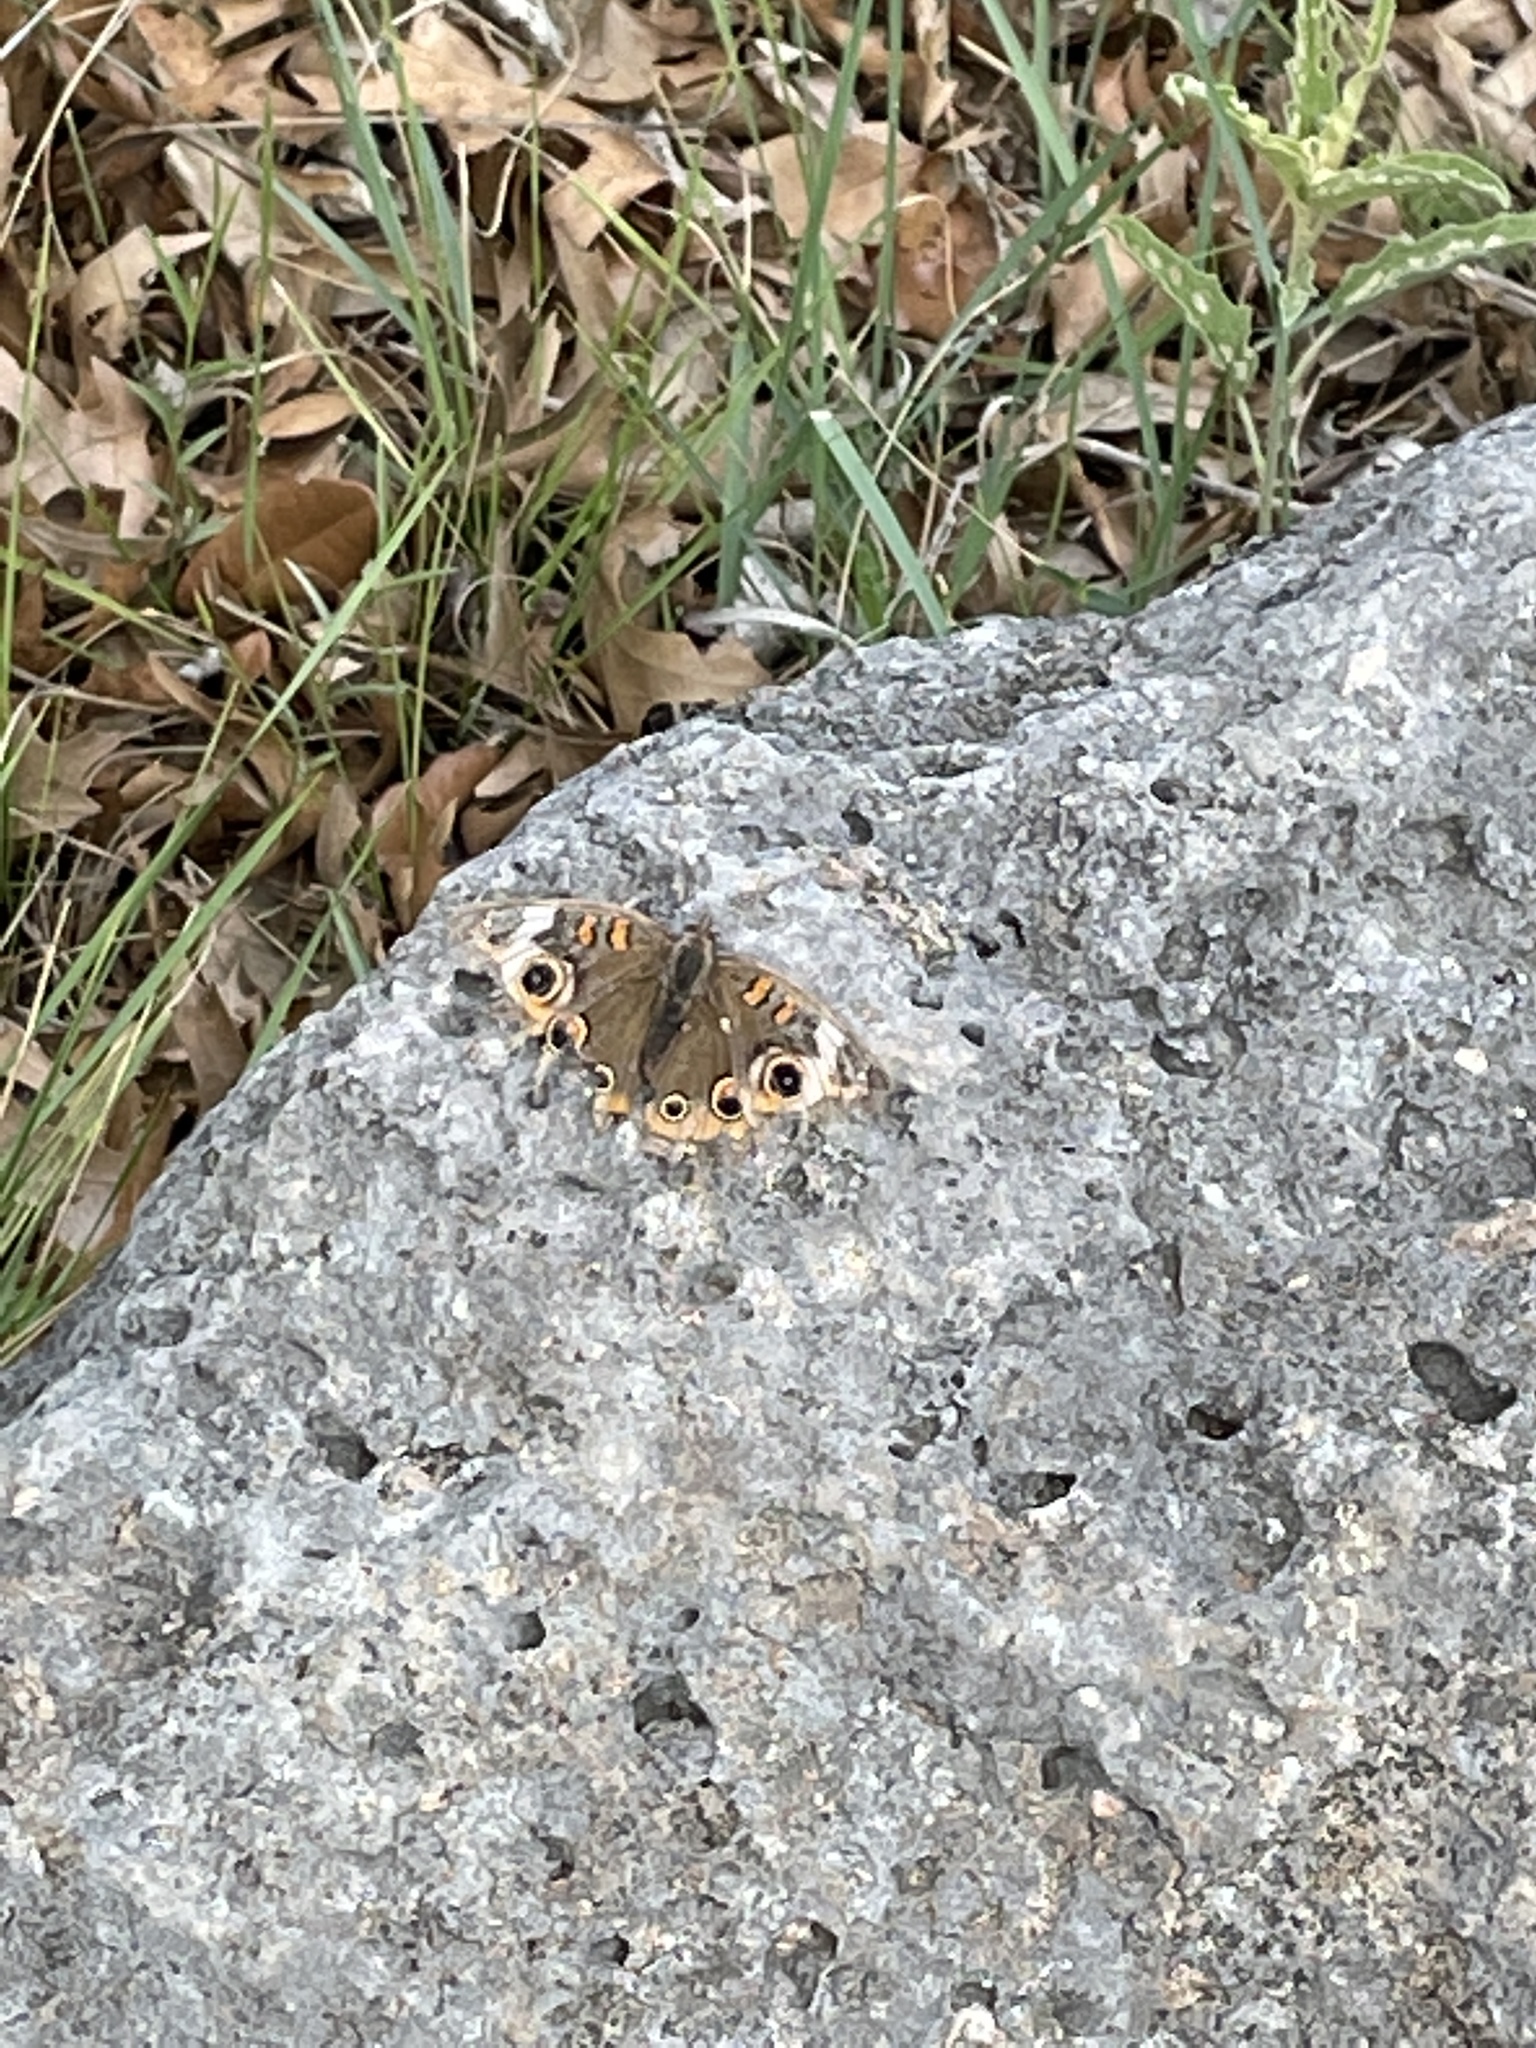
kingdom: Animalia
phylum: Arthropoda
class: Insecta
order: Lepidoptera
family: Nymphalidae
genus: Junonia
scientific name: Junonia coenia
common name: Common buckeye
